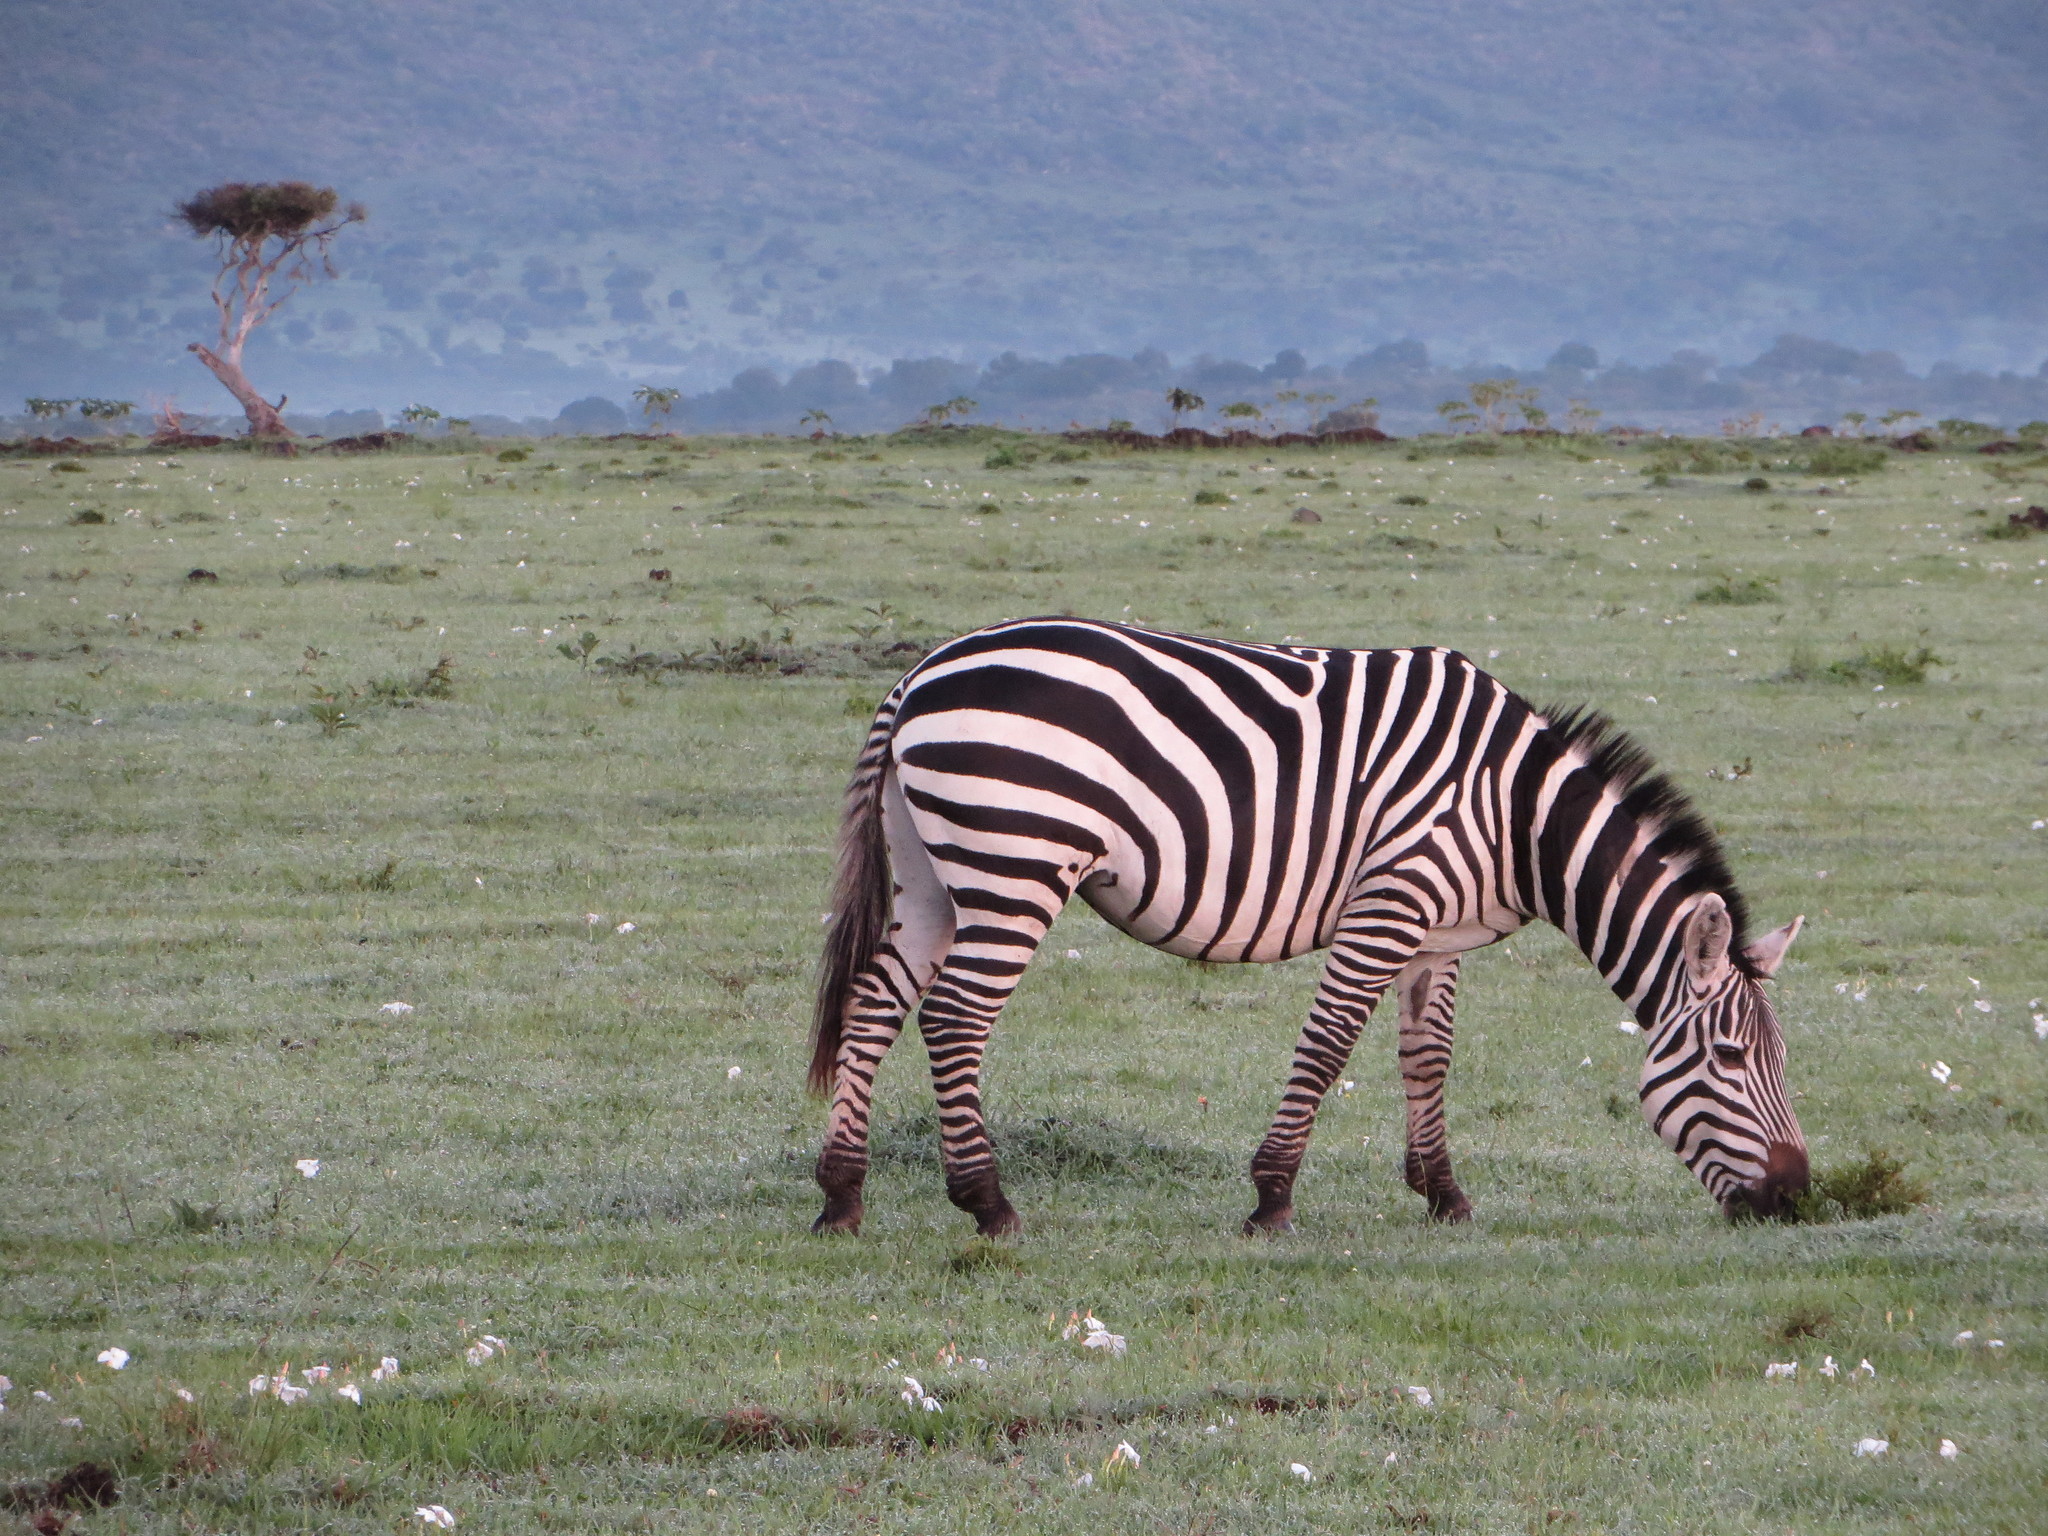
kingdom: Animalia
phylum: Chordata
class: Mammalia
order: Perissodactyla
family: Equidae
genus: Equus
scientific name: Equus quagga
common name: Plains zebra
